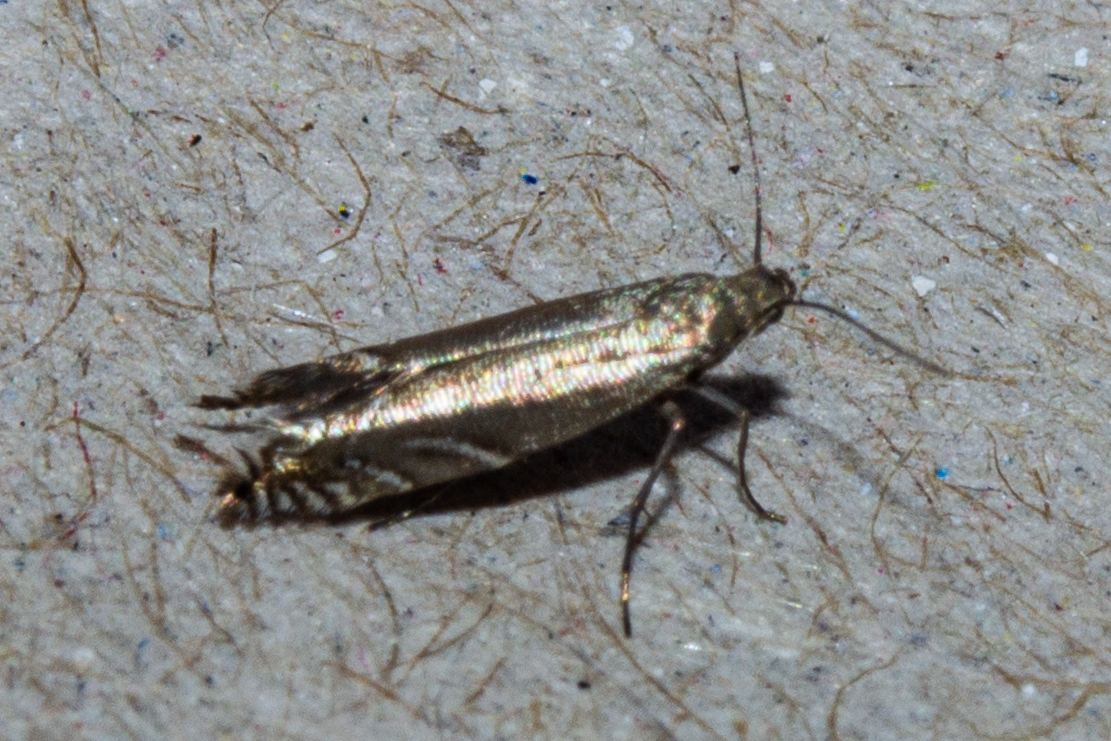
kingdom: Animalia
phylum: Arthropoda
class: Insecta
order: Lepidoptera
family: Glyphipterigidae
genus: Glyphipterix
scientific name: Glyphipterix iocheaera
